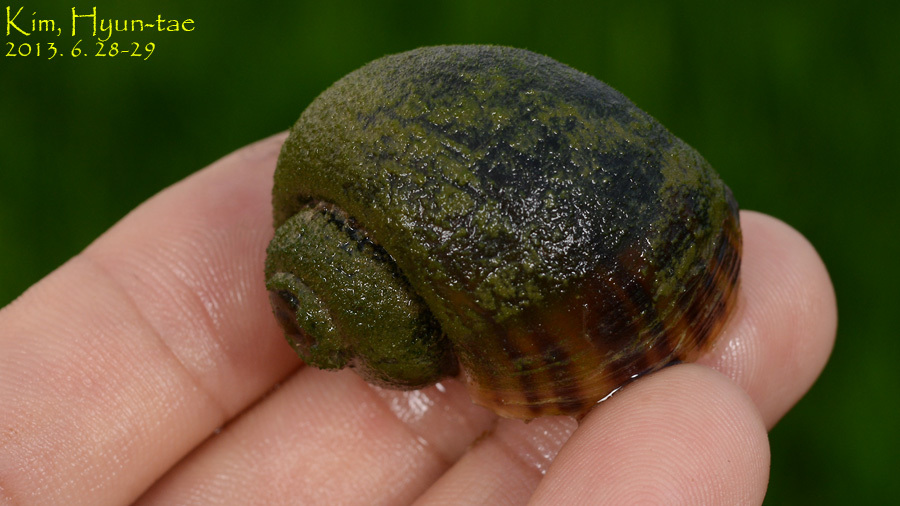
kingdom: Animalia
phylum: Mollusca
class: Gastropoda
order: Architaenioglossa
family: Ampullariidae
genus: Pomacea
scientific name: Pomacea canaliculata
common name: Channeled applesnail
